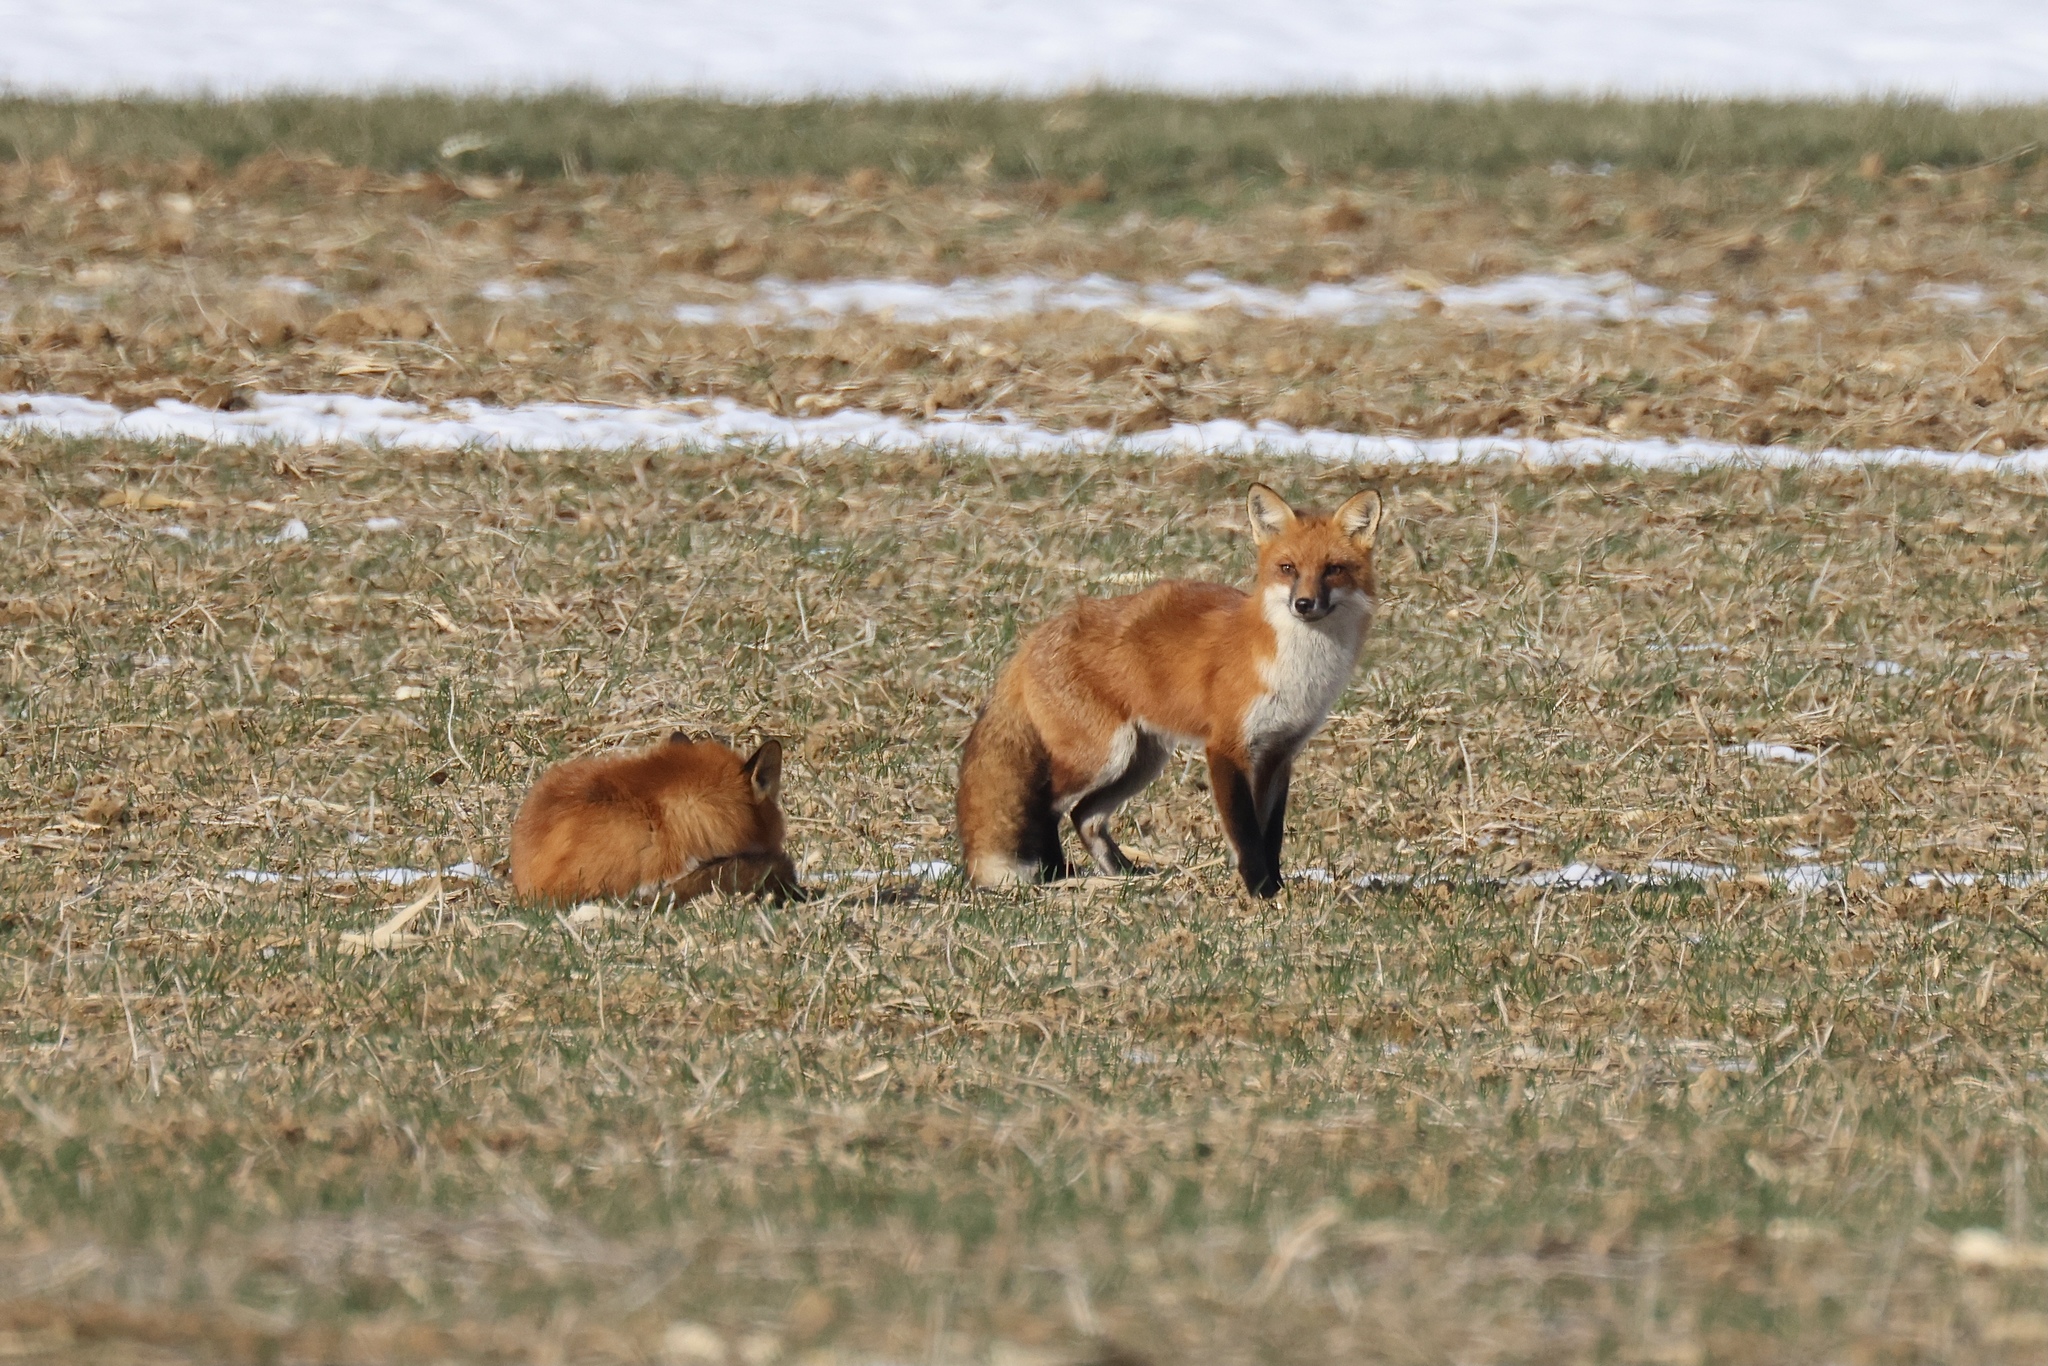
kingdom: Animalia
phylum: Chordata
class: Mammalia
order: Carnivora
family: Canidae
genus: Vulpes
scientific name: Vulpes vulpes
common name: Red fox
